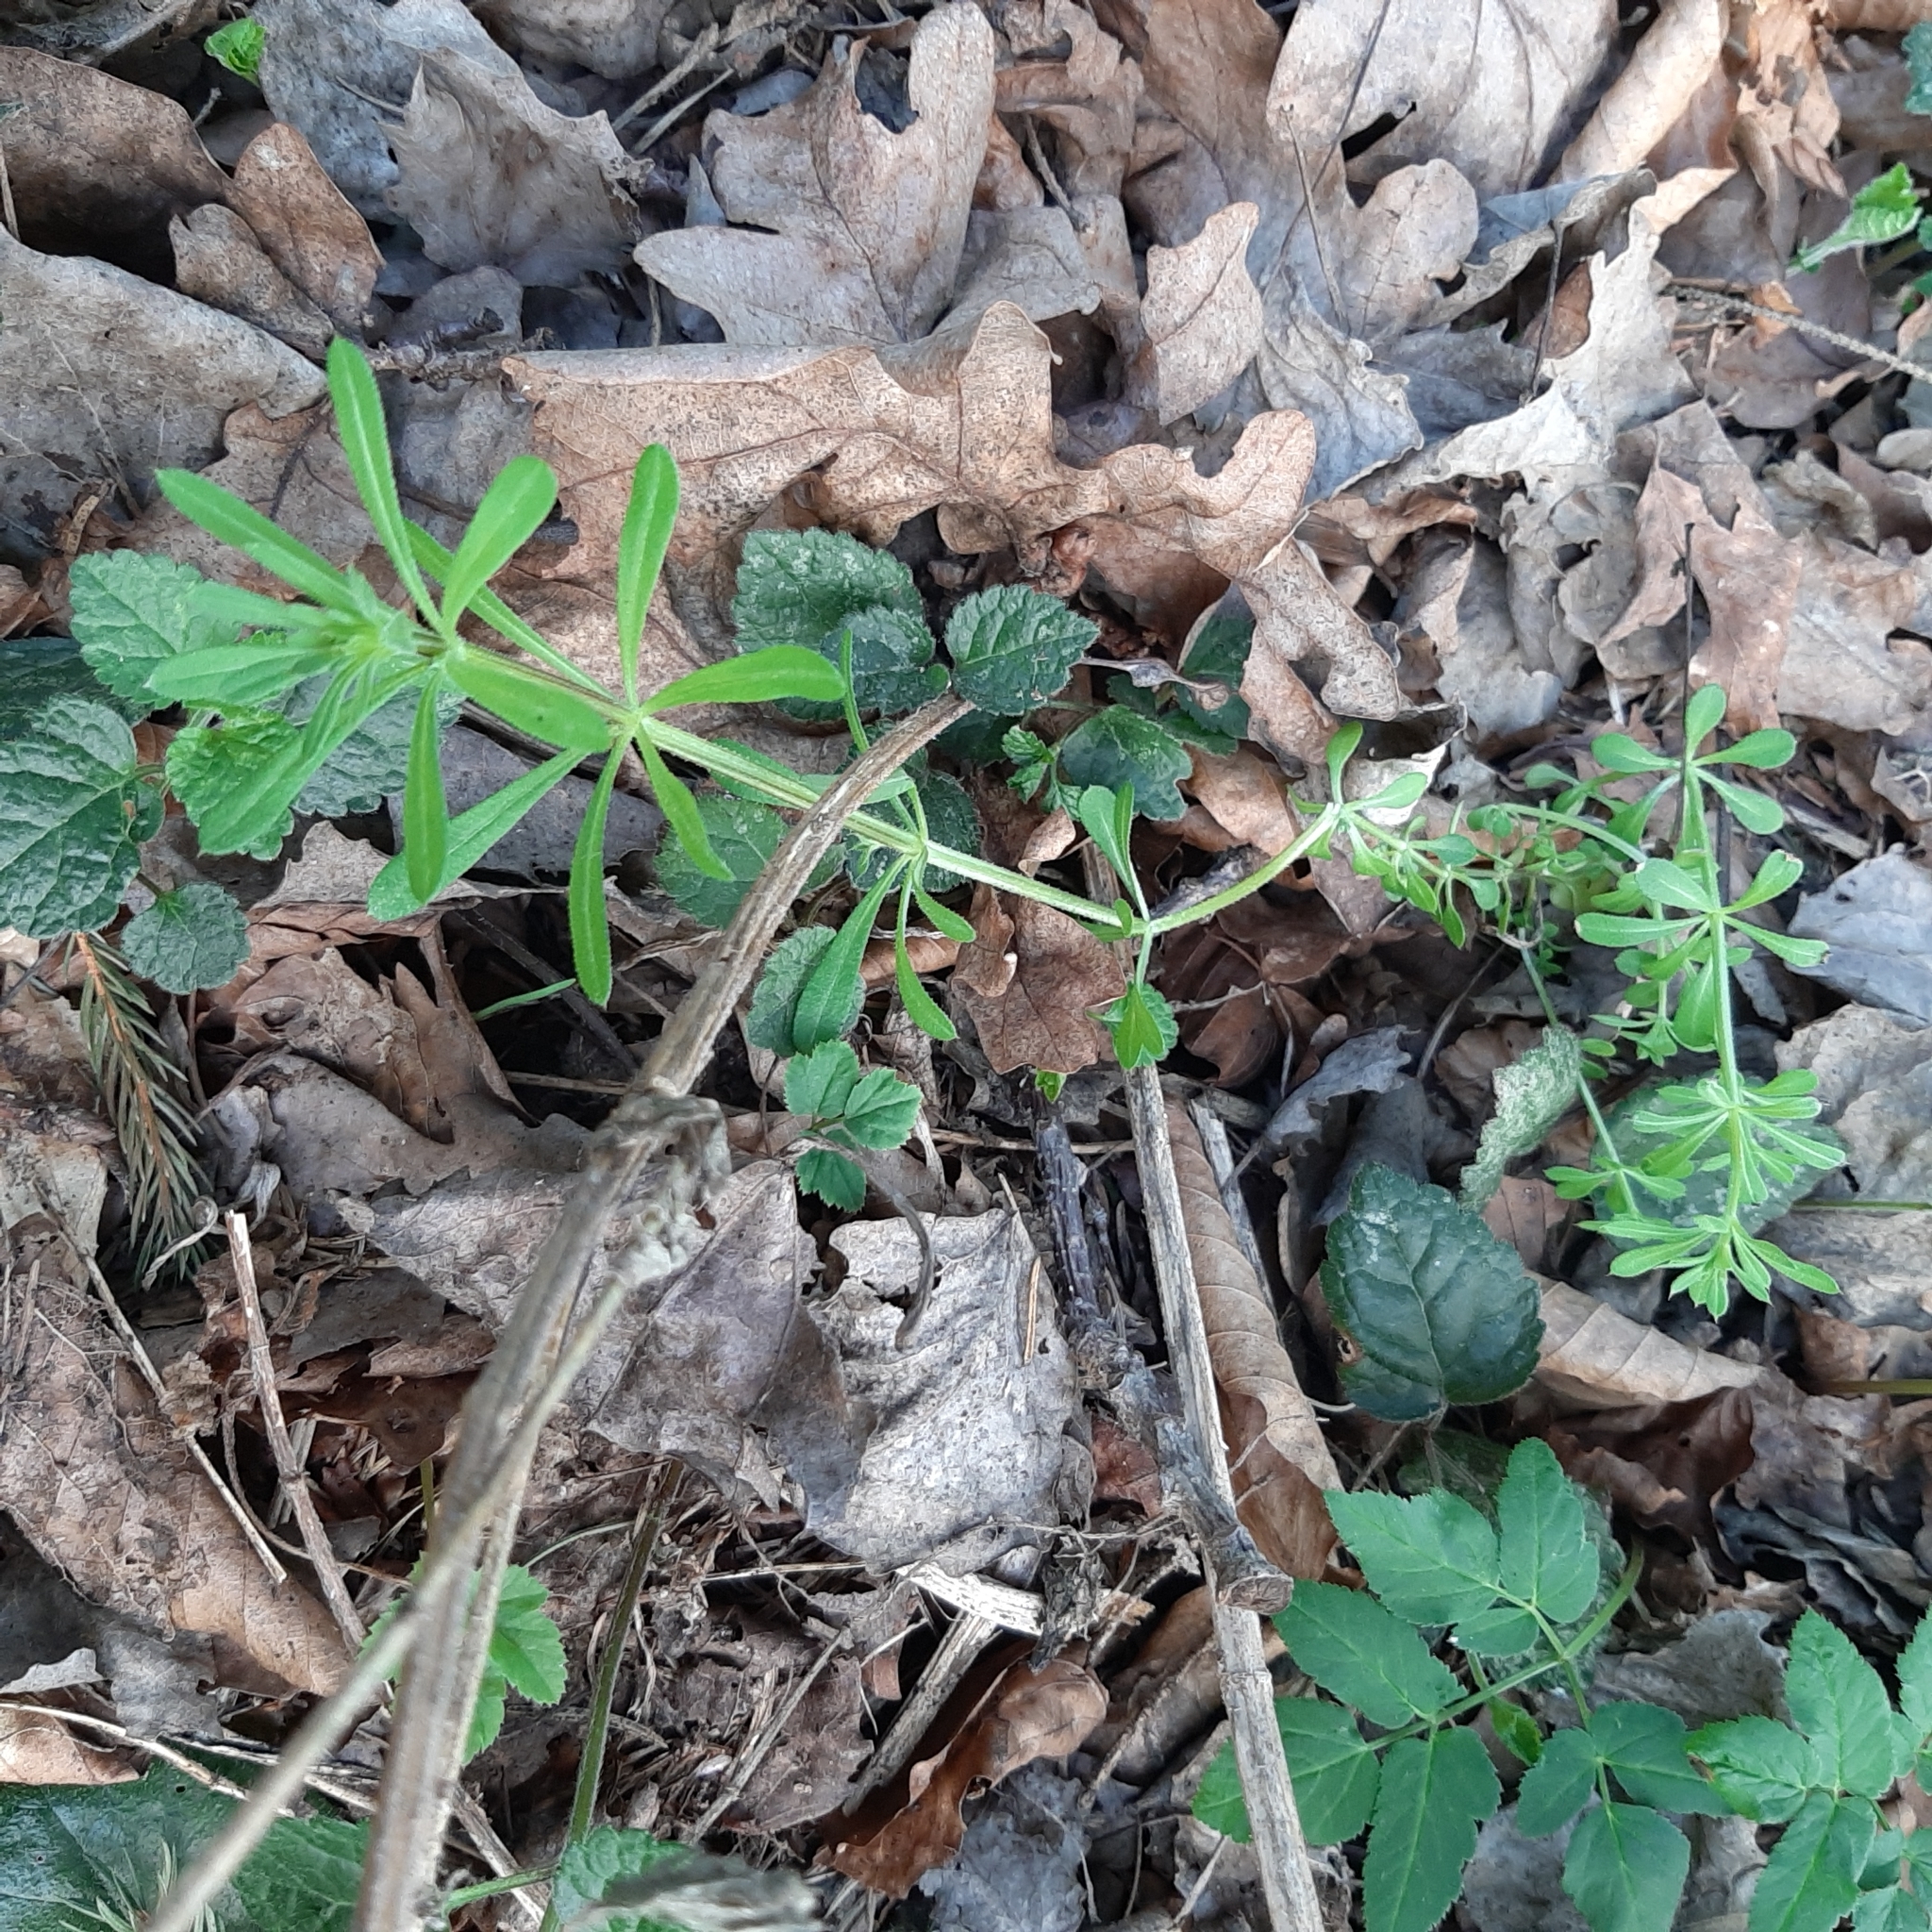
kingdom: Plantae
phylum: Tracheophyta
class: Magnoliopsida
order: Gentianales
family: Rubiaceae
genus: Galium
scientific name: Galium aparine
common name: Cleavers
